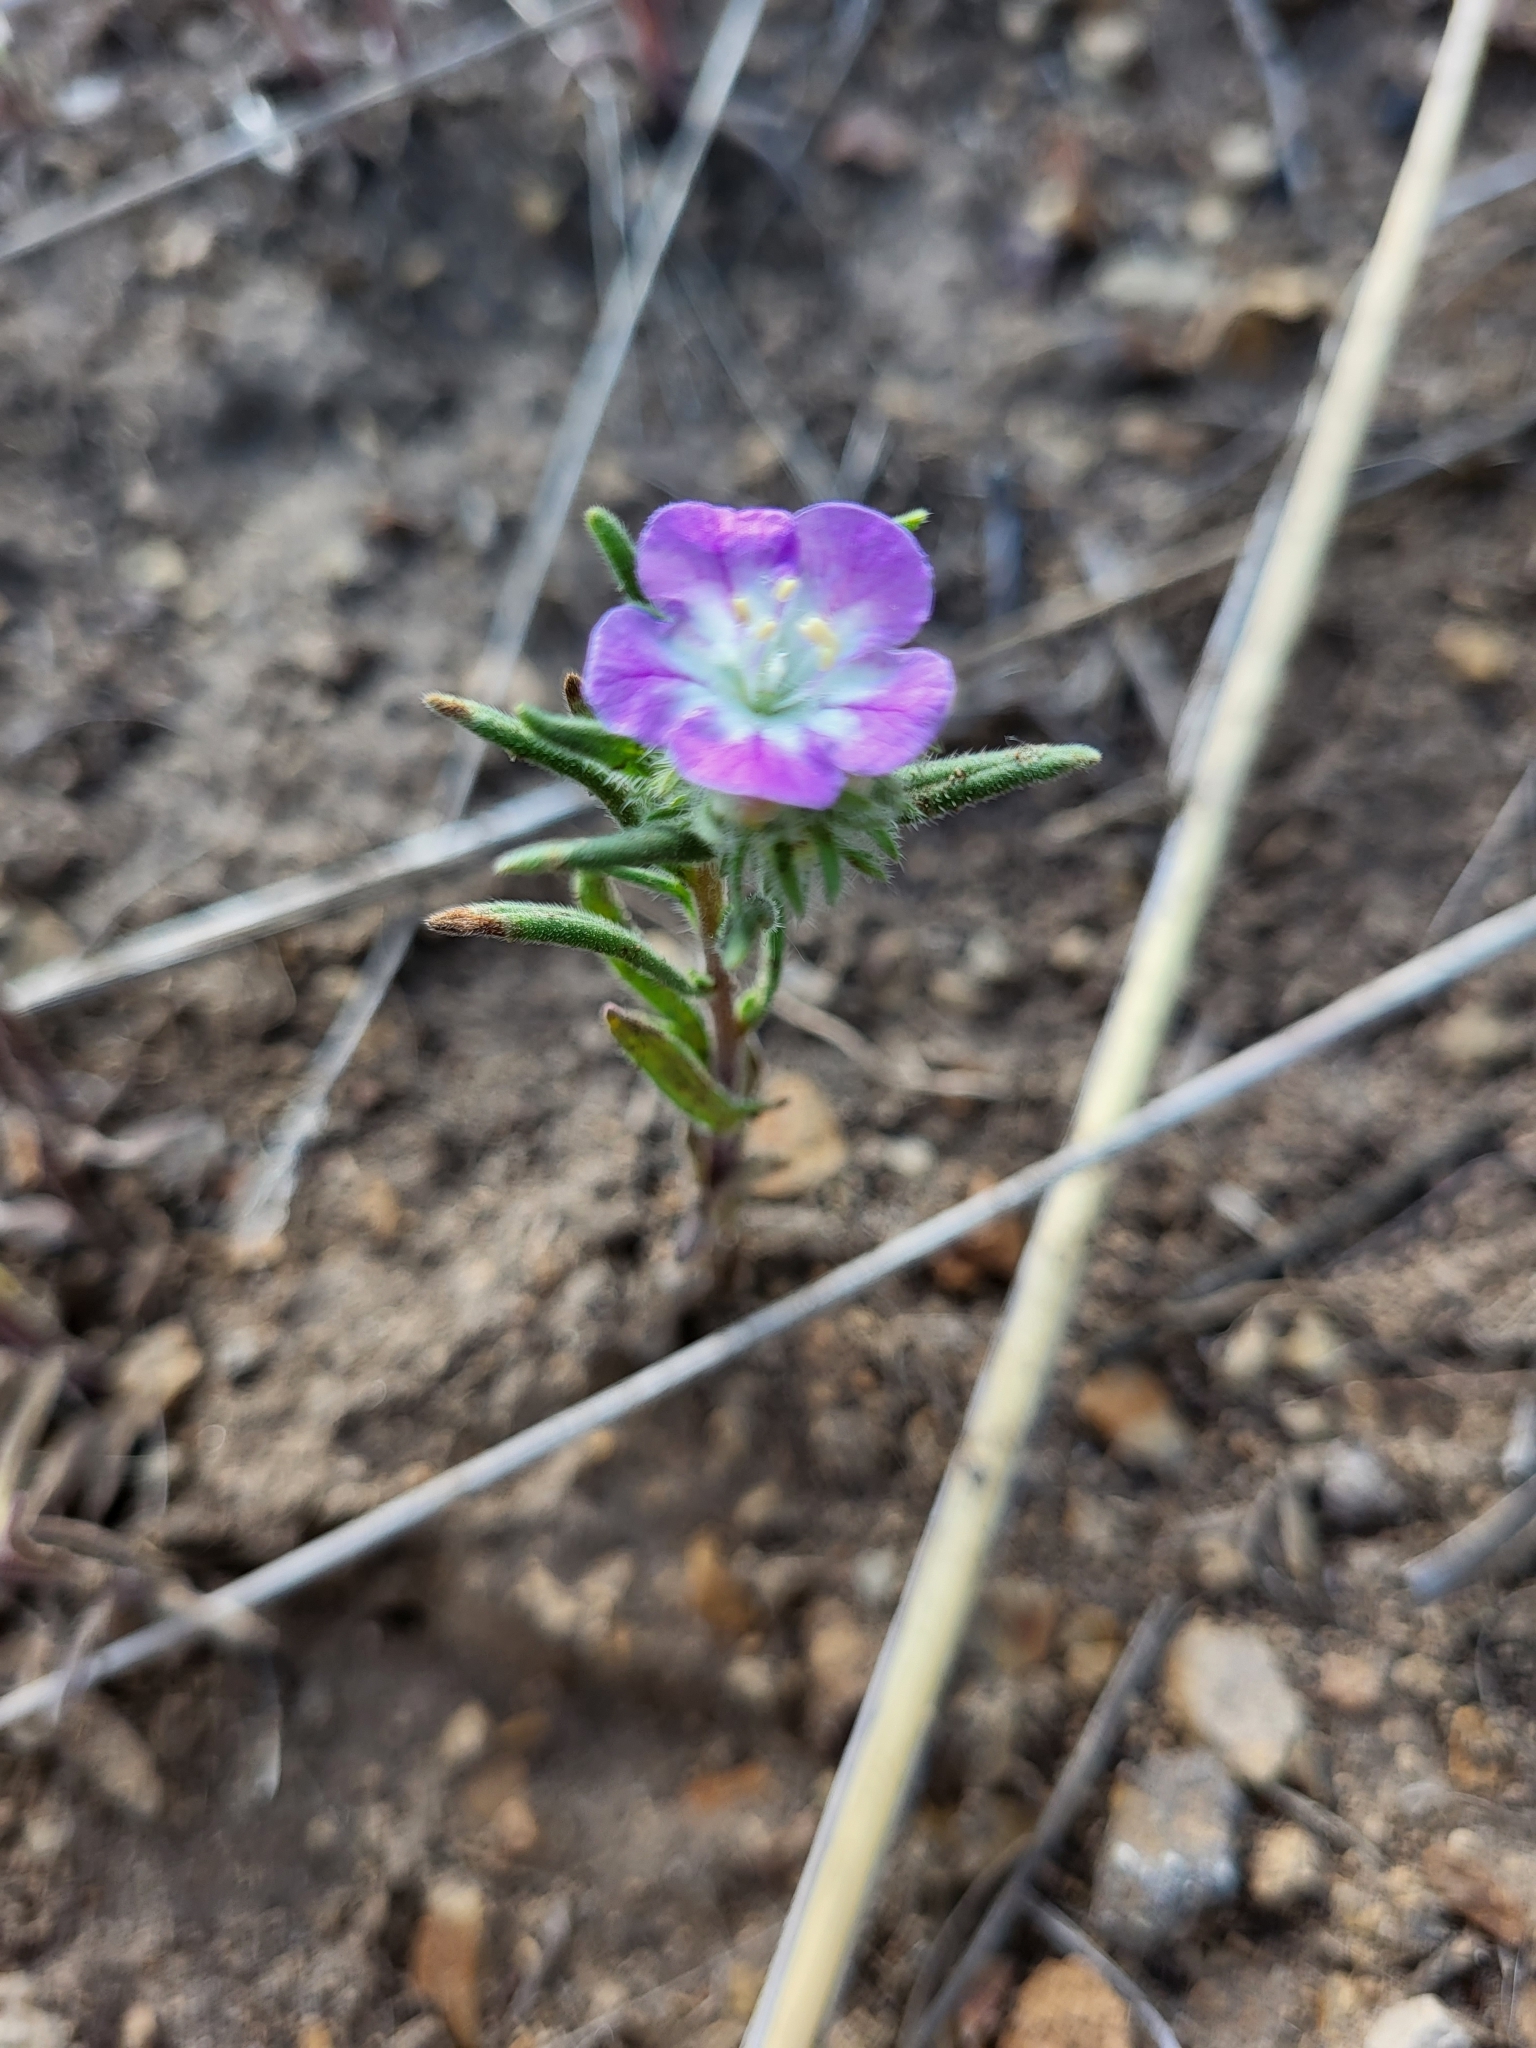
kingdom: Plantae
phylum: Tracheophyta
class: Magnoliopsida
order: Boraginales
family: Hydrophyllaceae
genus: Phacelia
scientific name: Phacelia linearis
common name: Linear-leaved phacelia
